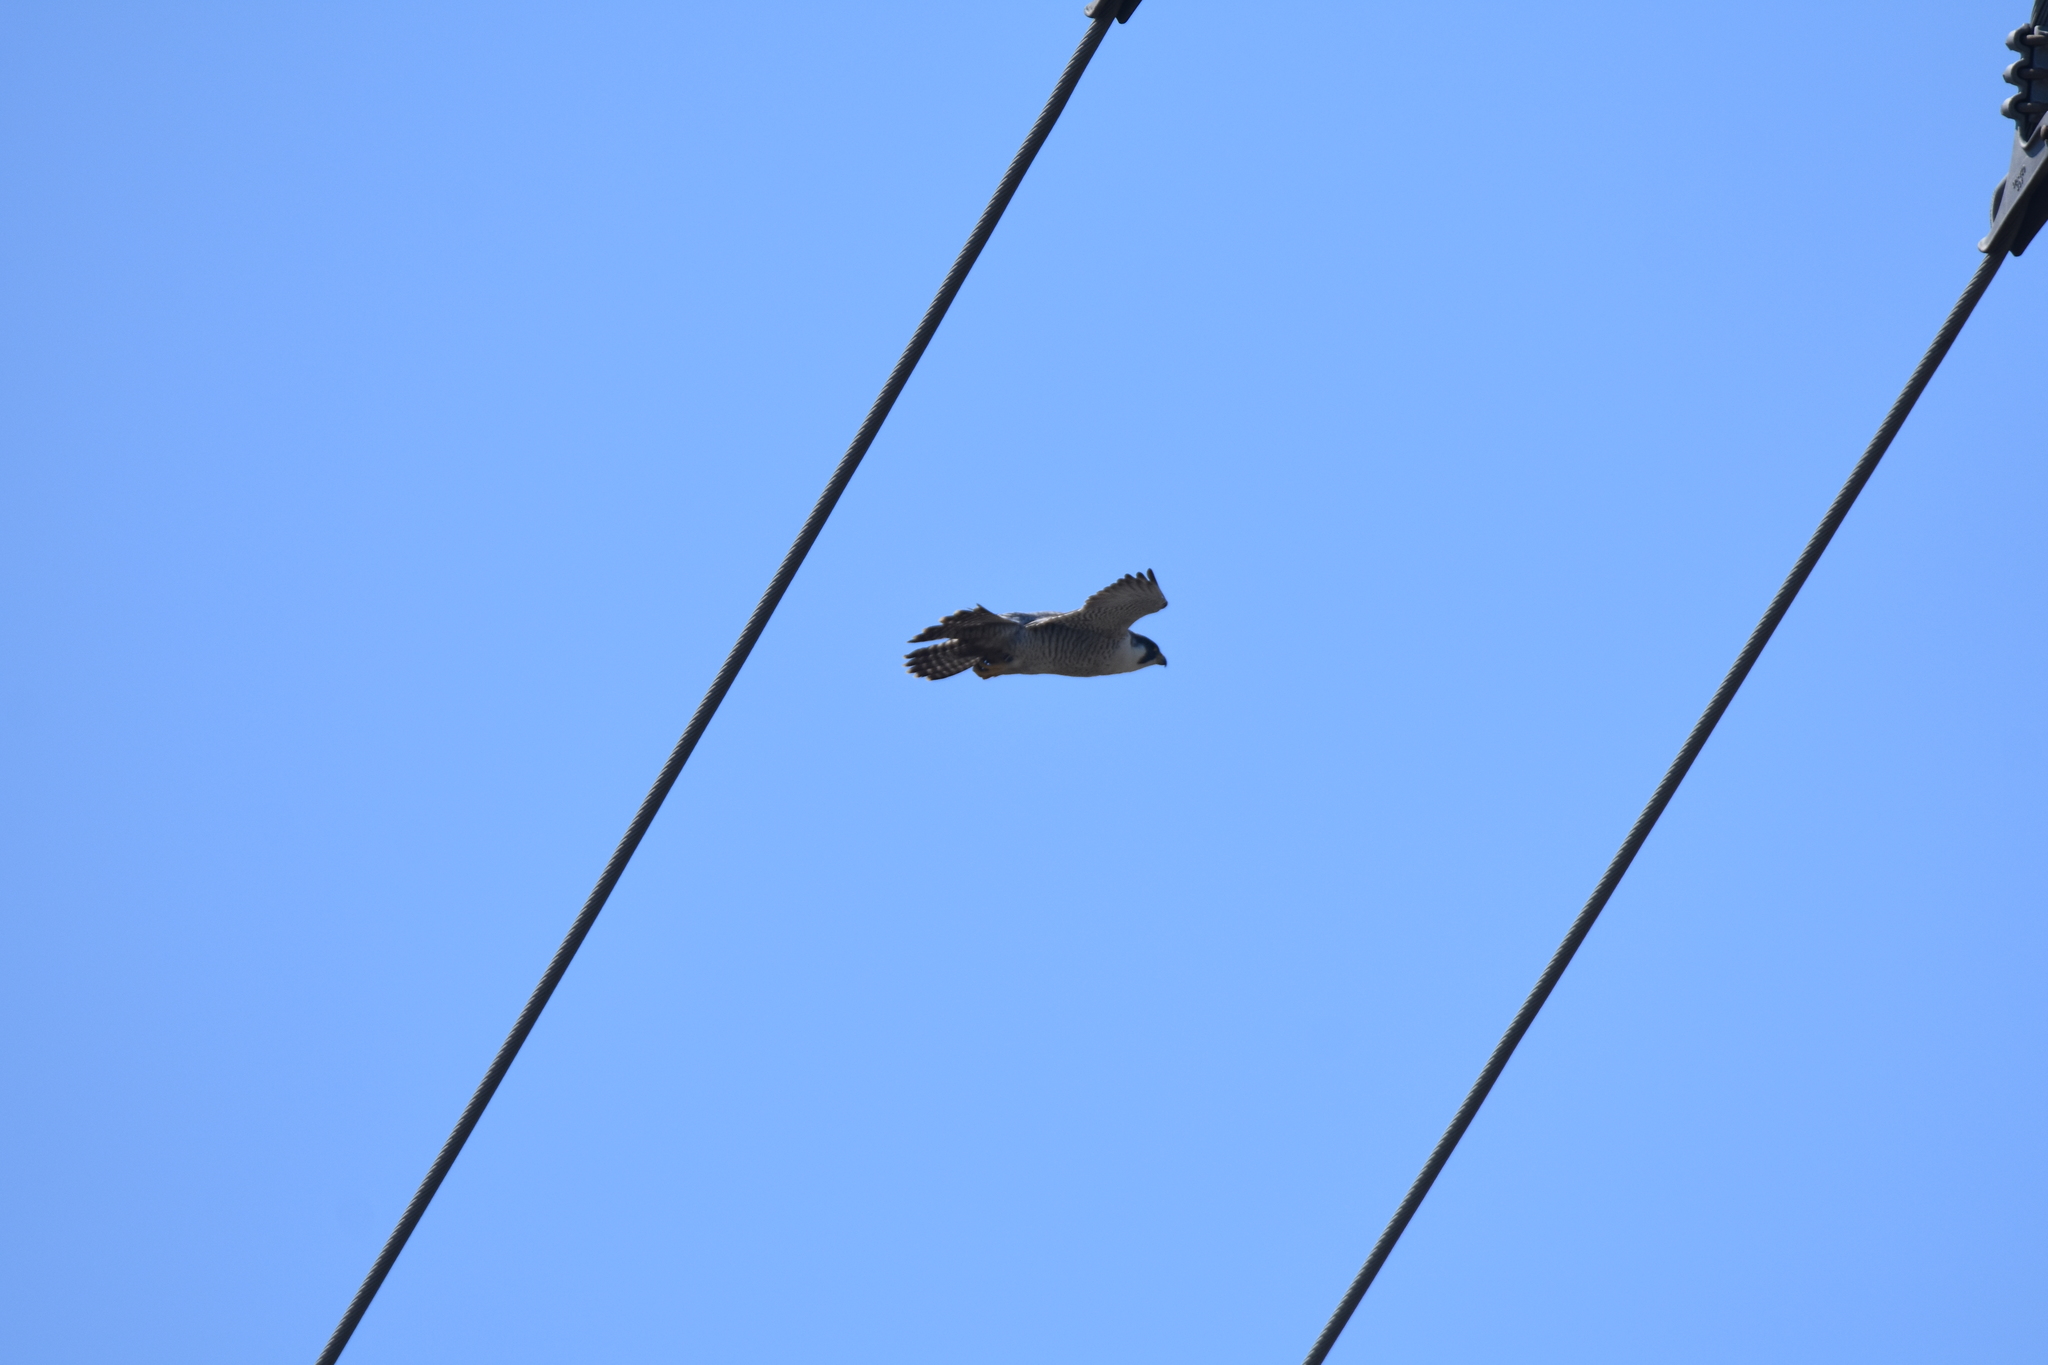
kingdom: Animalia
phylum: Chordata
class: Aves
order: Falconiformes
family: Falconidae
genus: Falco
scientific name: Falco peregrinus
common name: Peregrine falcon
